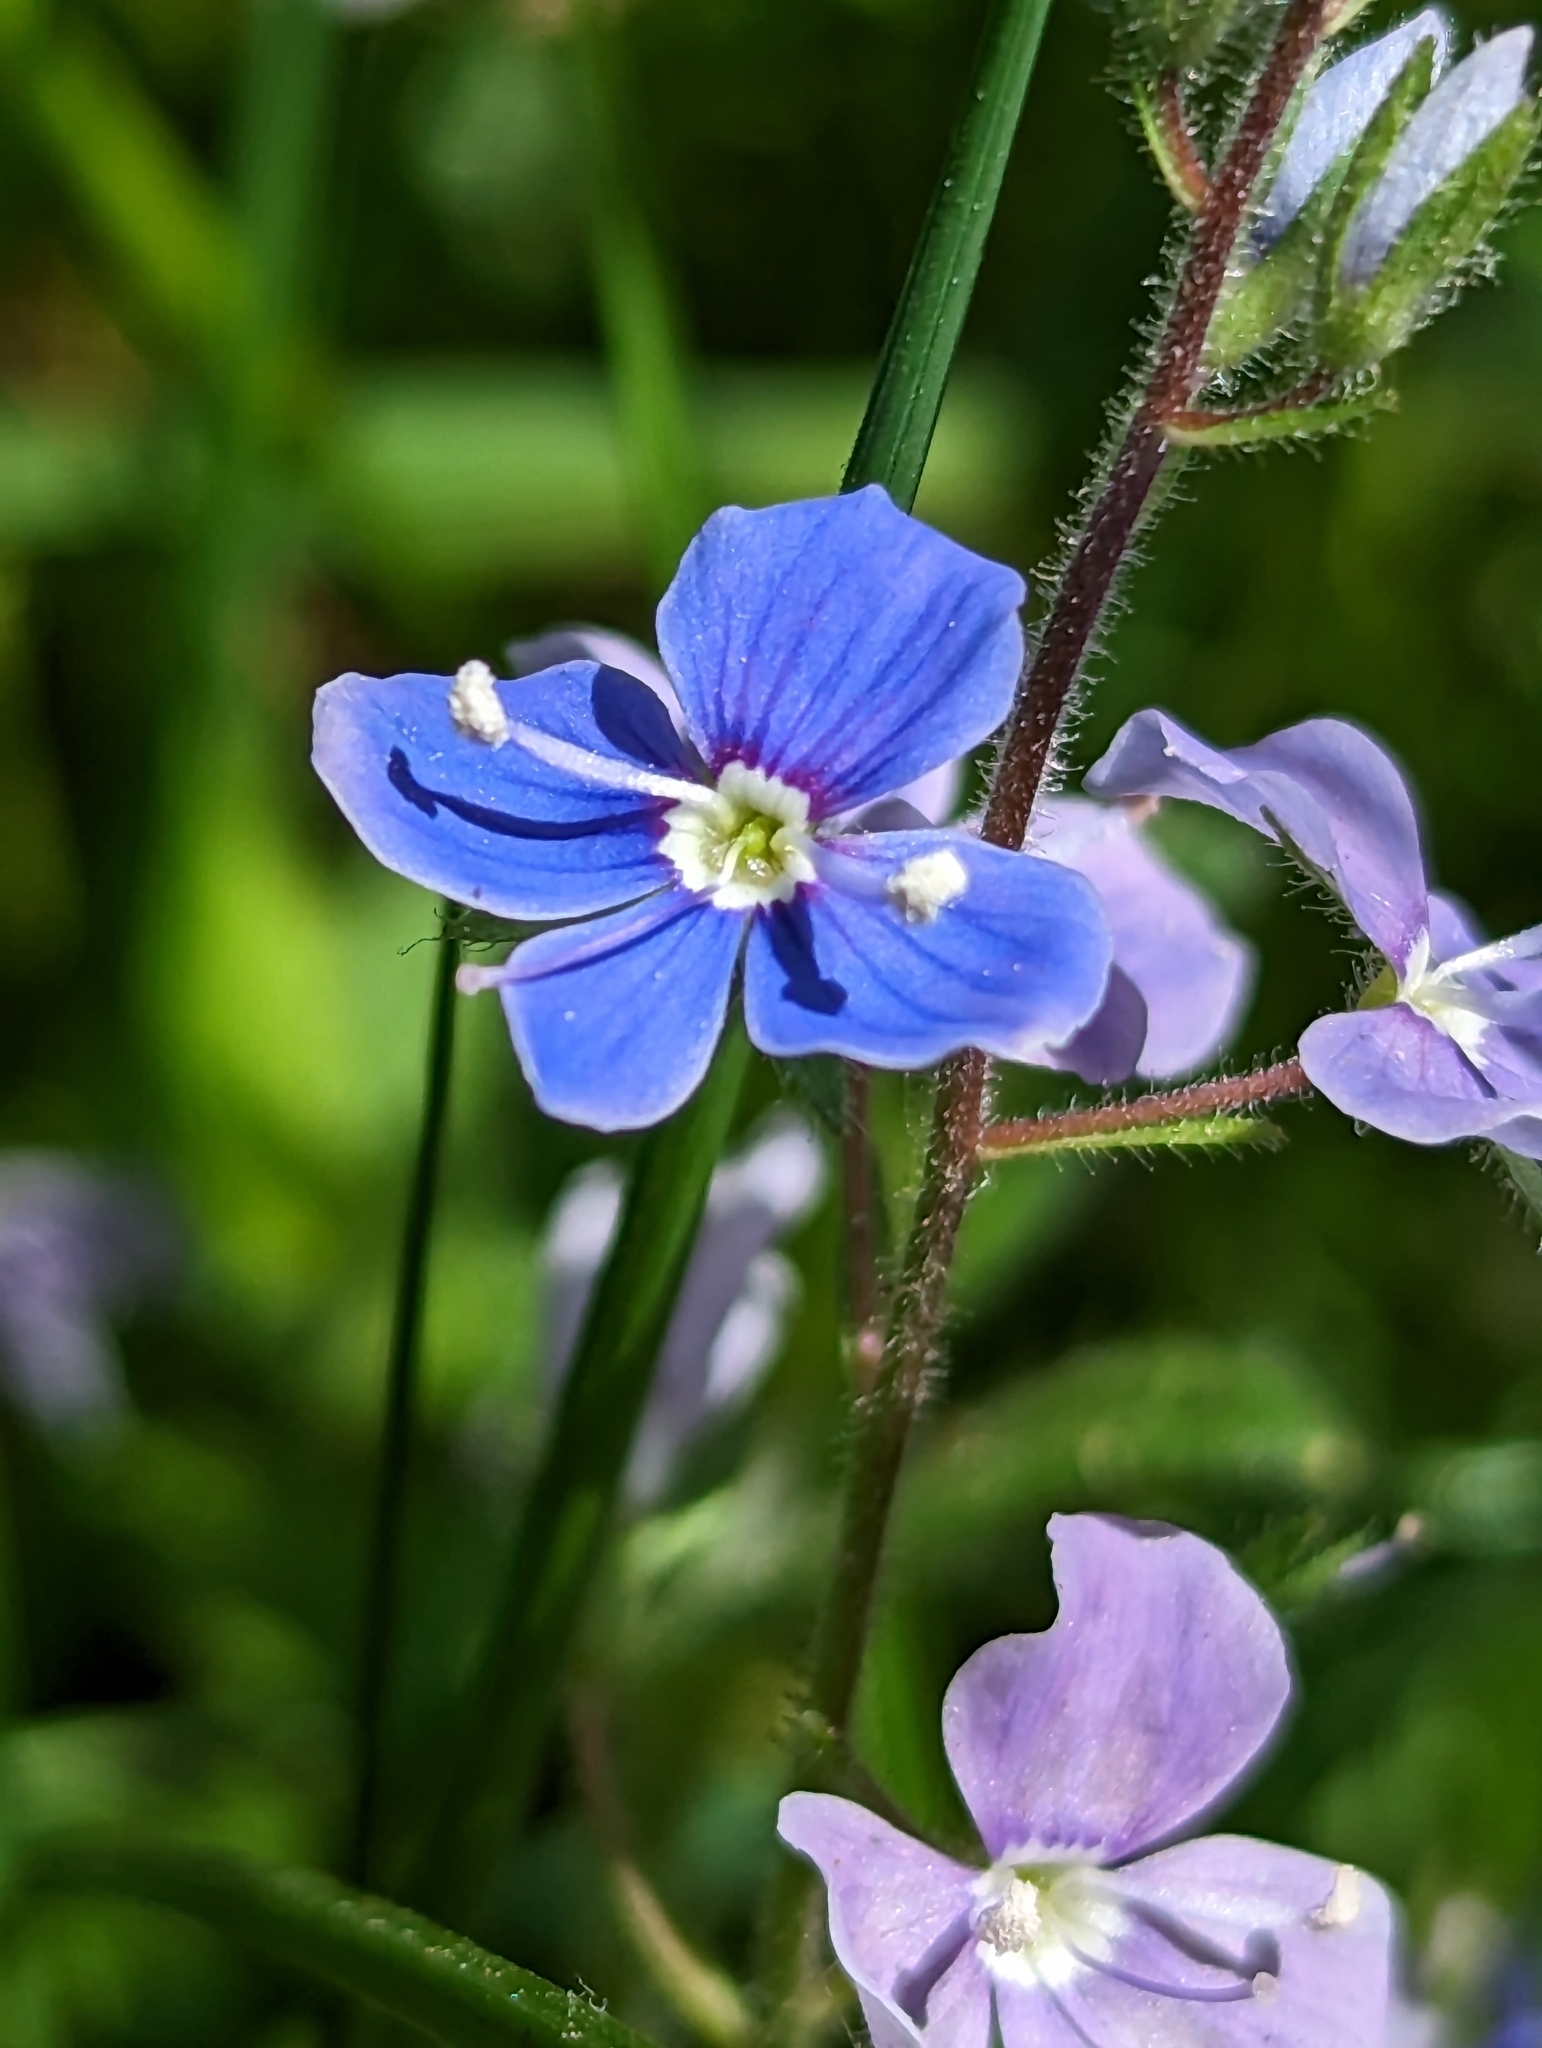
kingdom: Plantae
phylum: Tracheophyta
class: Magnoliopsida
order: Lamiales
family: Plantaginaceae
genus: Veronica
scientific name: Veronica chamaedrys
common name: Germander speedwell
